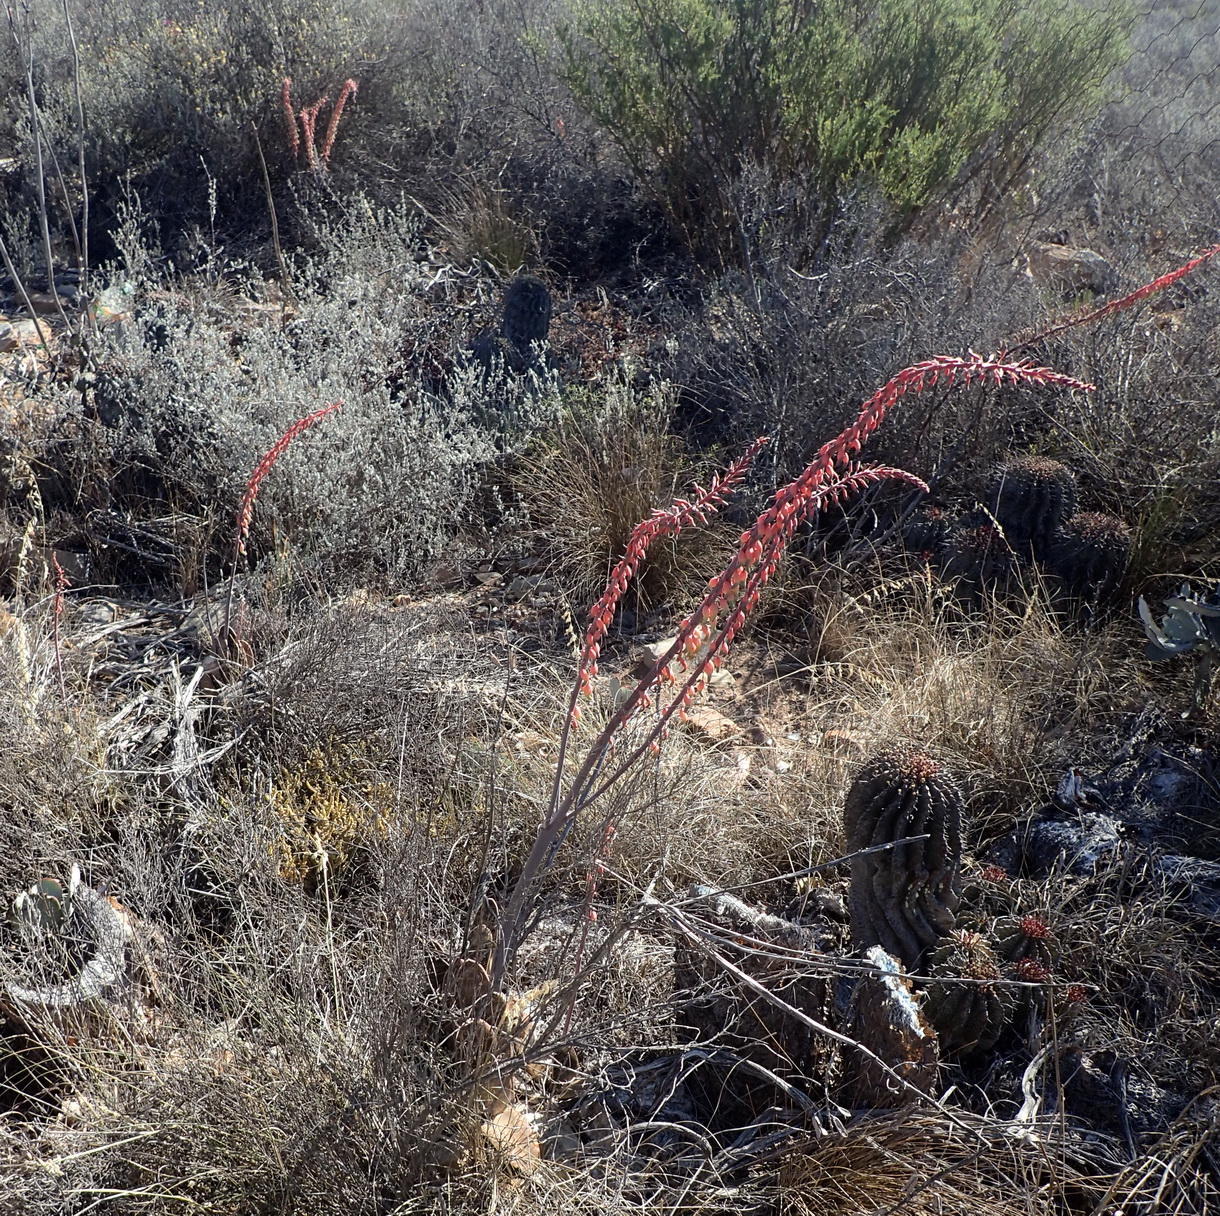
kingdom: Plantae
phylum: Tracheophyta
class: Liliopsida
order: Asparagales
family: Asphodelaceae
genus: Gasteria
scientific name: Gasteria brachyphylla
